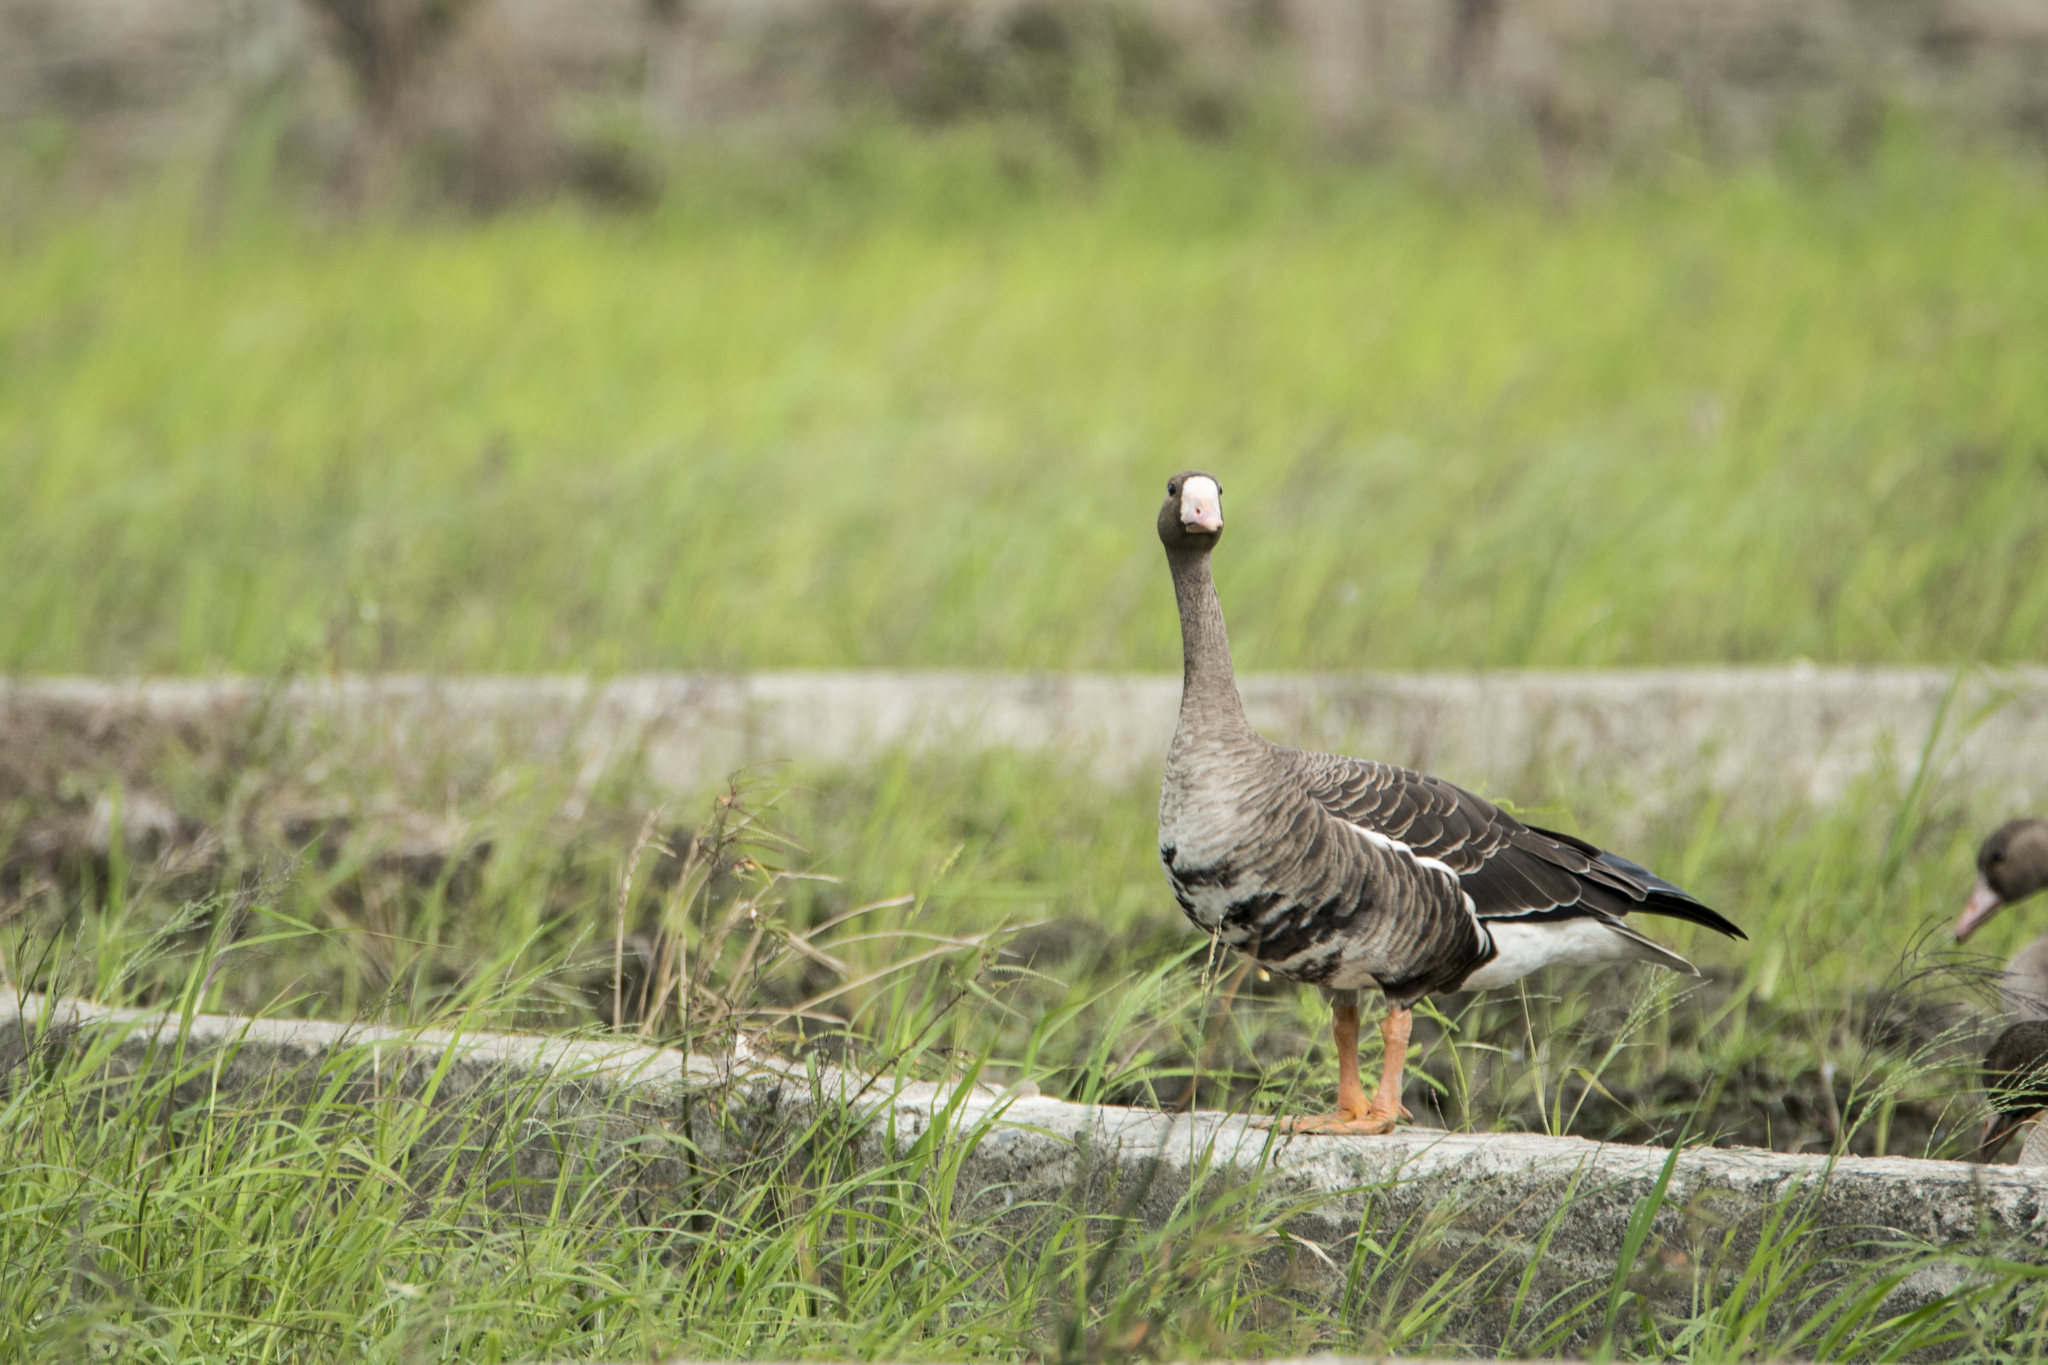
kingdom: Animalia
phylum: Chordata
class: Aves
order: Anseriformes
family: Anatidae
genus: Anser
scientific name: Anser albifrons
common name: Greater white-fronted goose
